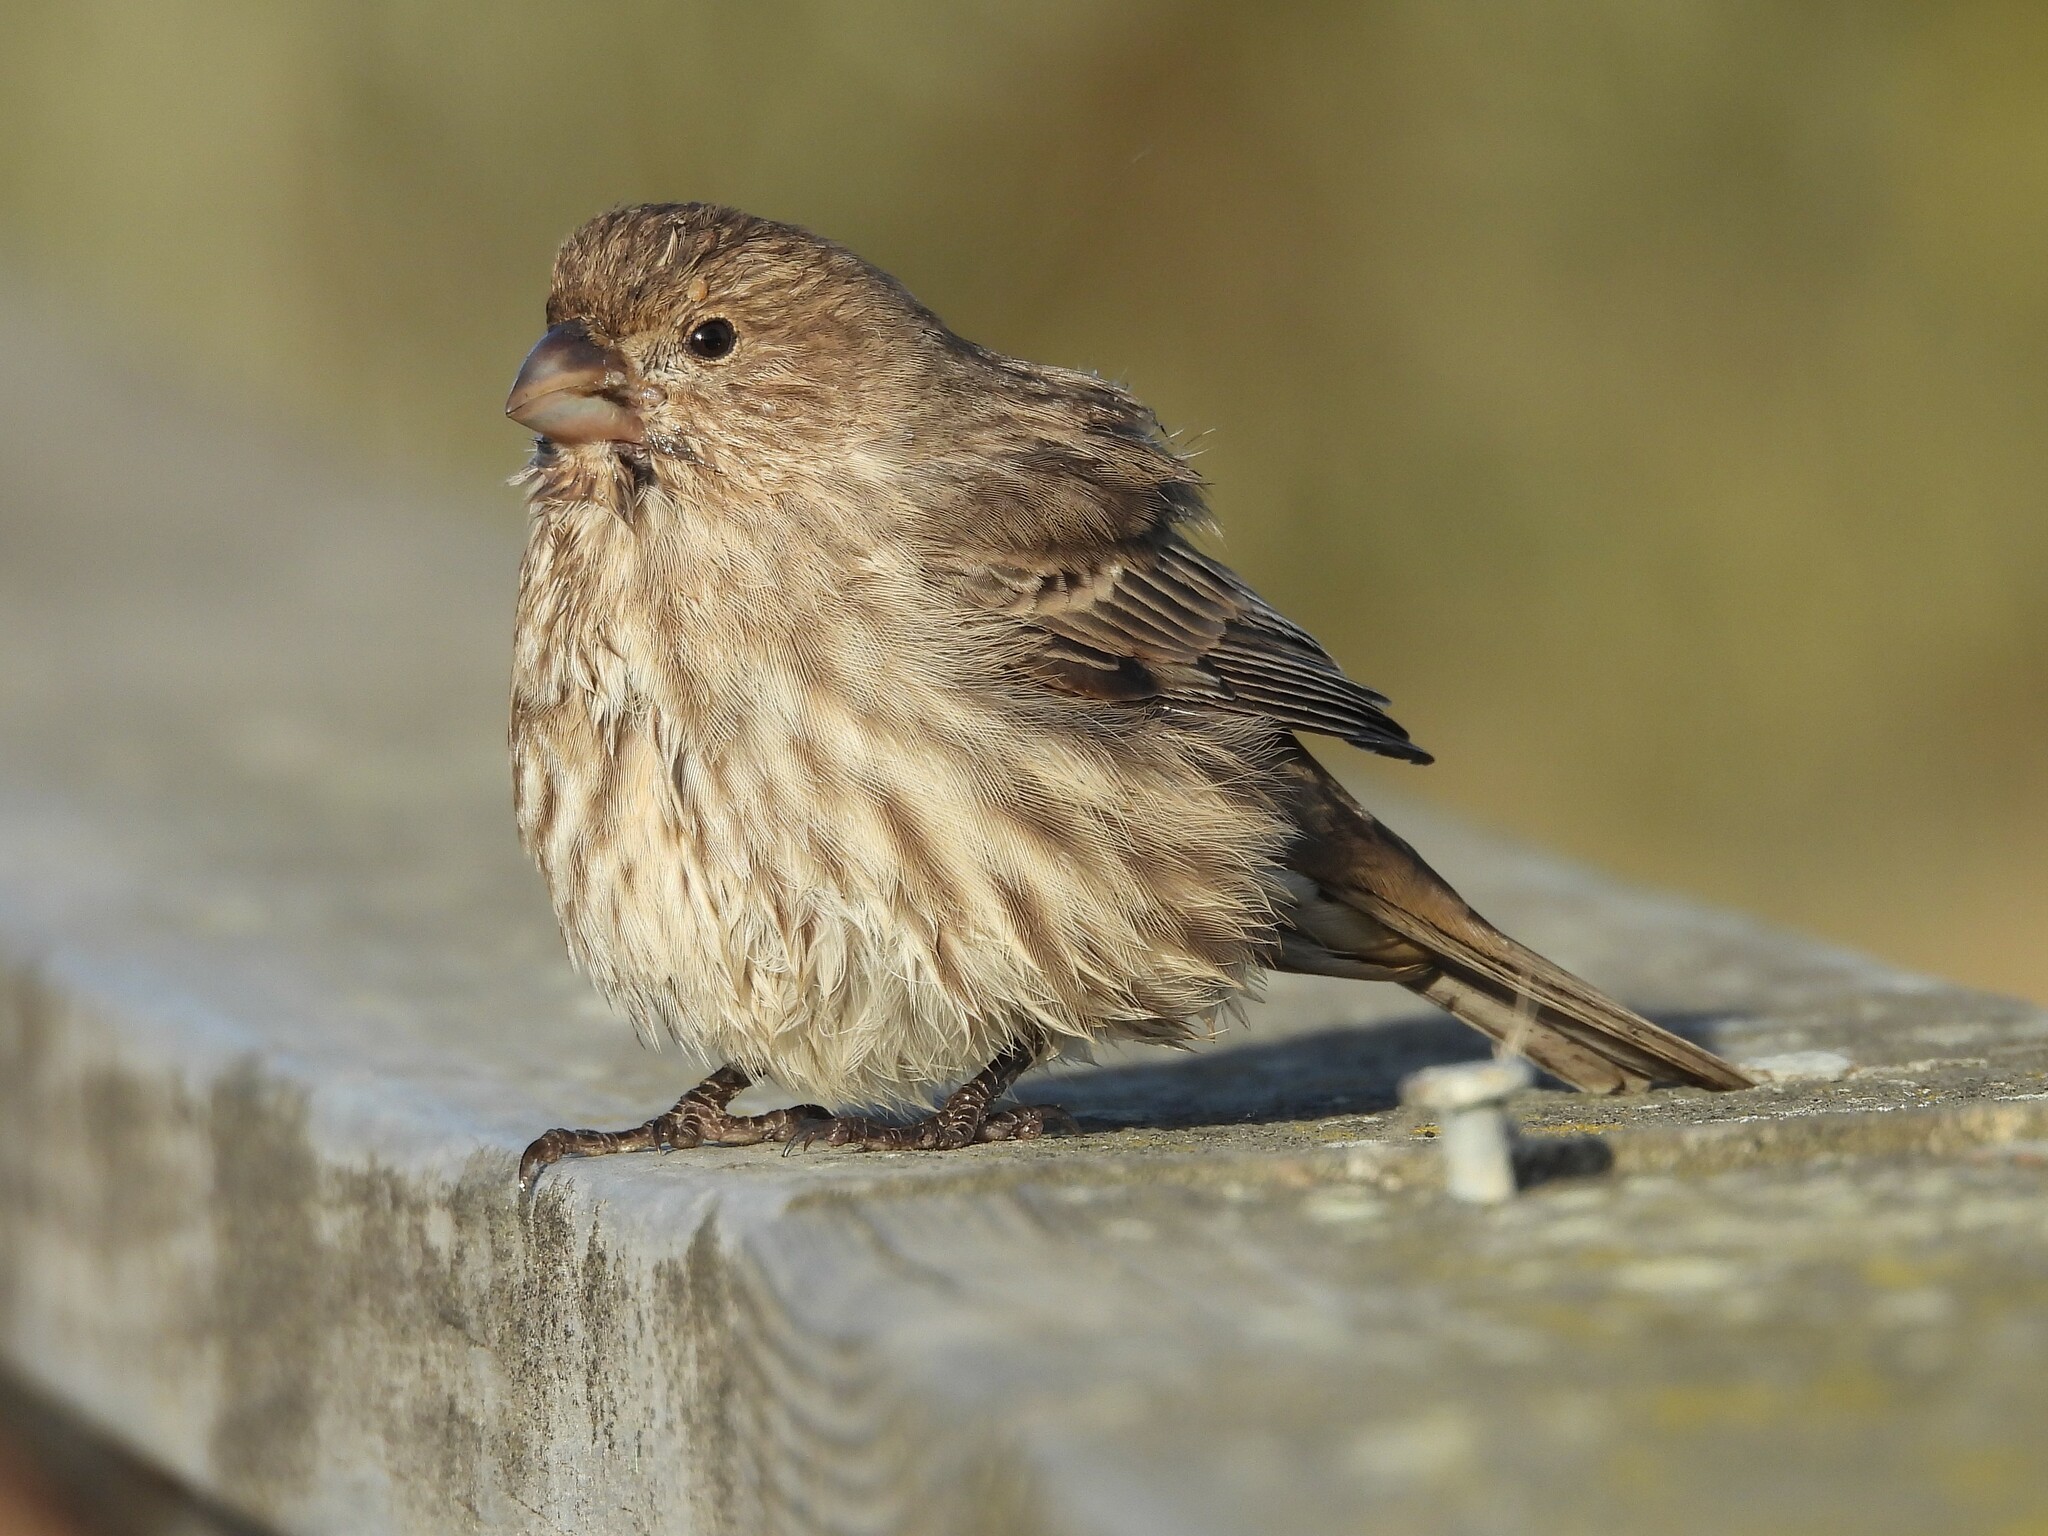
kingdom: Animalia
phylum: Chordata
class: Aves
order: Passeriformes
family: Fringillidae
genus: Haemorhous
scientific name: Haemorhous mexicanus
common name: House finch
